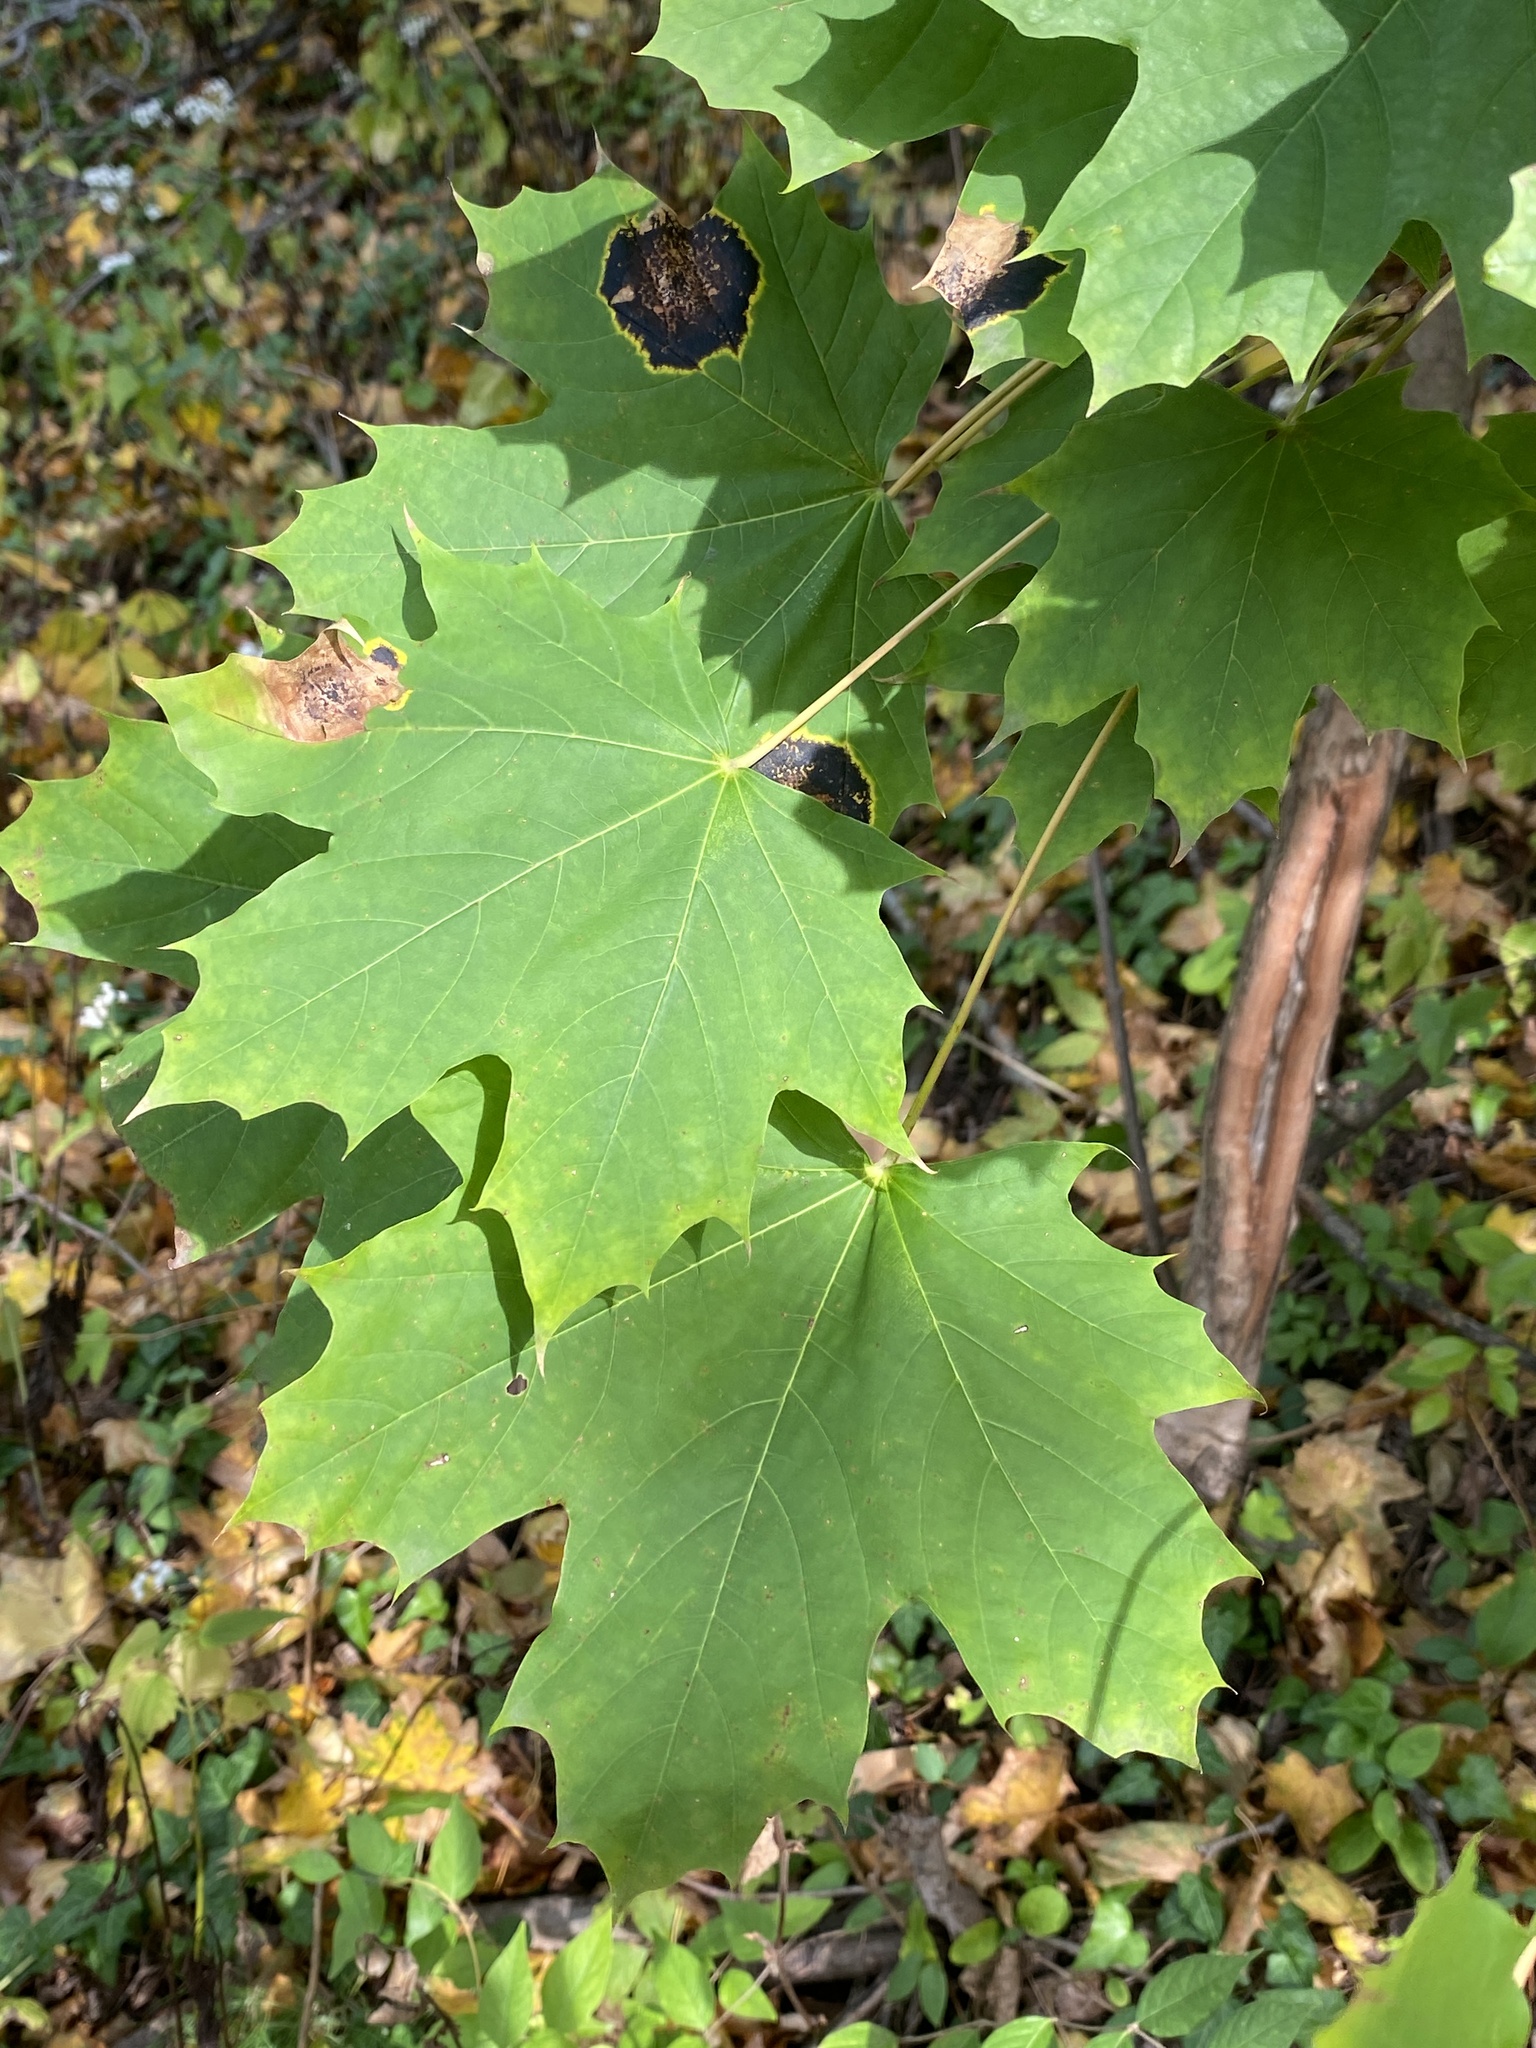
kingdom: Fungi
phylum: Ascomycota
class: Leotiomycetes
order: Rhytismatales
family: Rhytismataceae
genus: Rhytisma
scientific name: Rhytisma acerinum
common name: European tar spot
